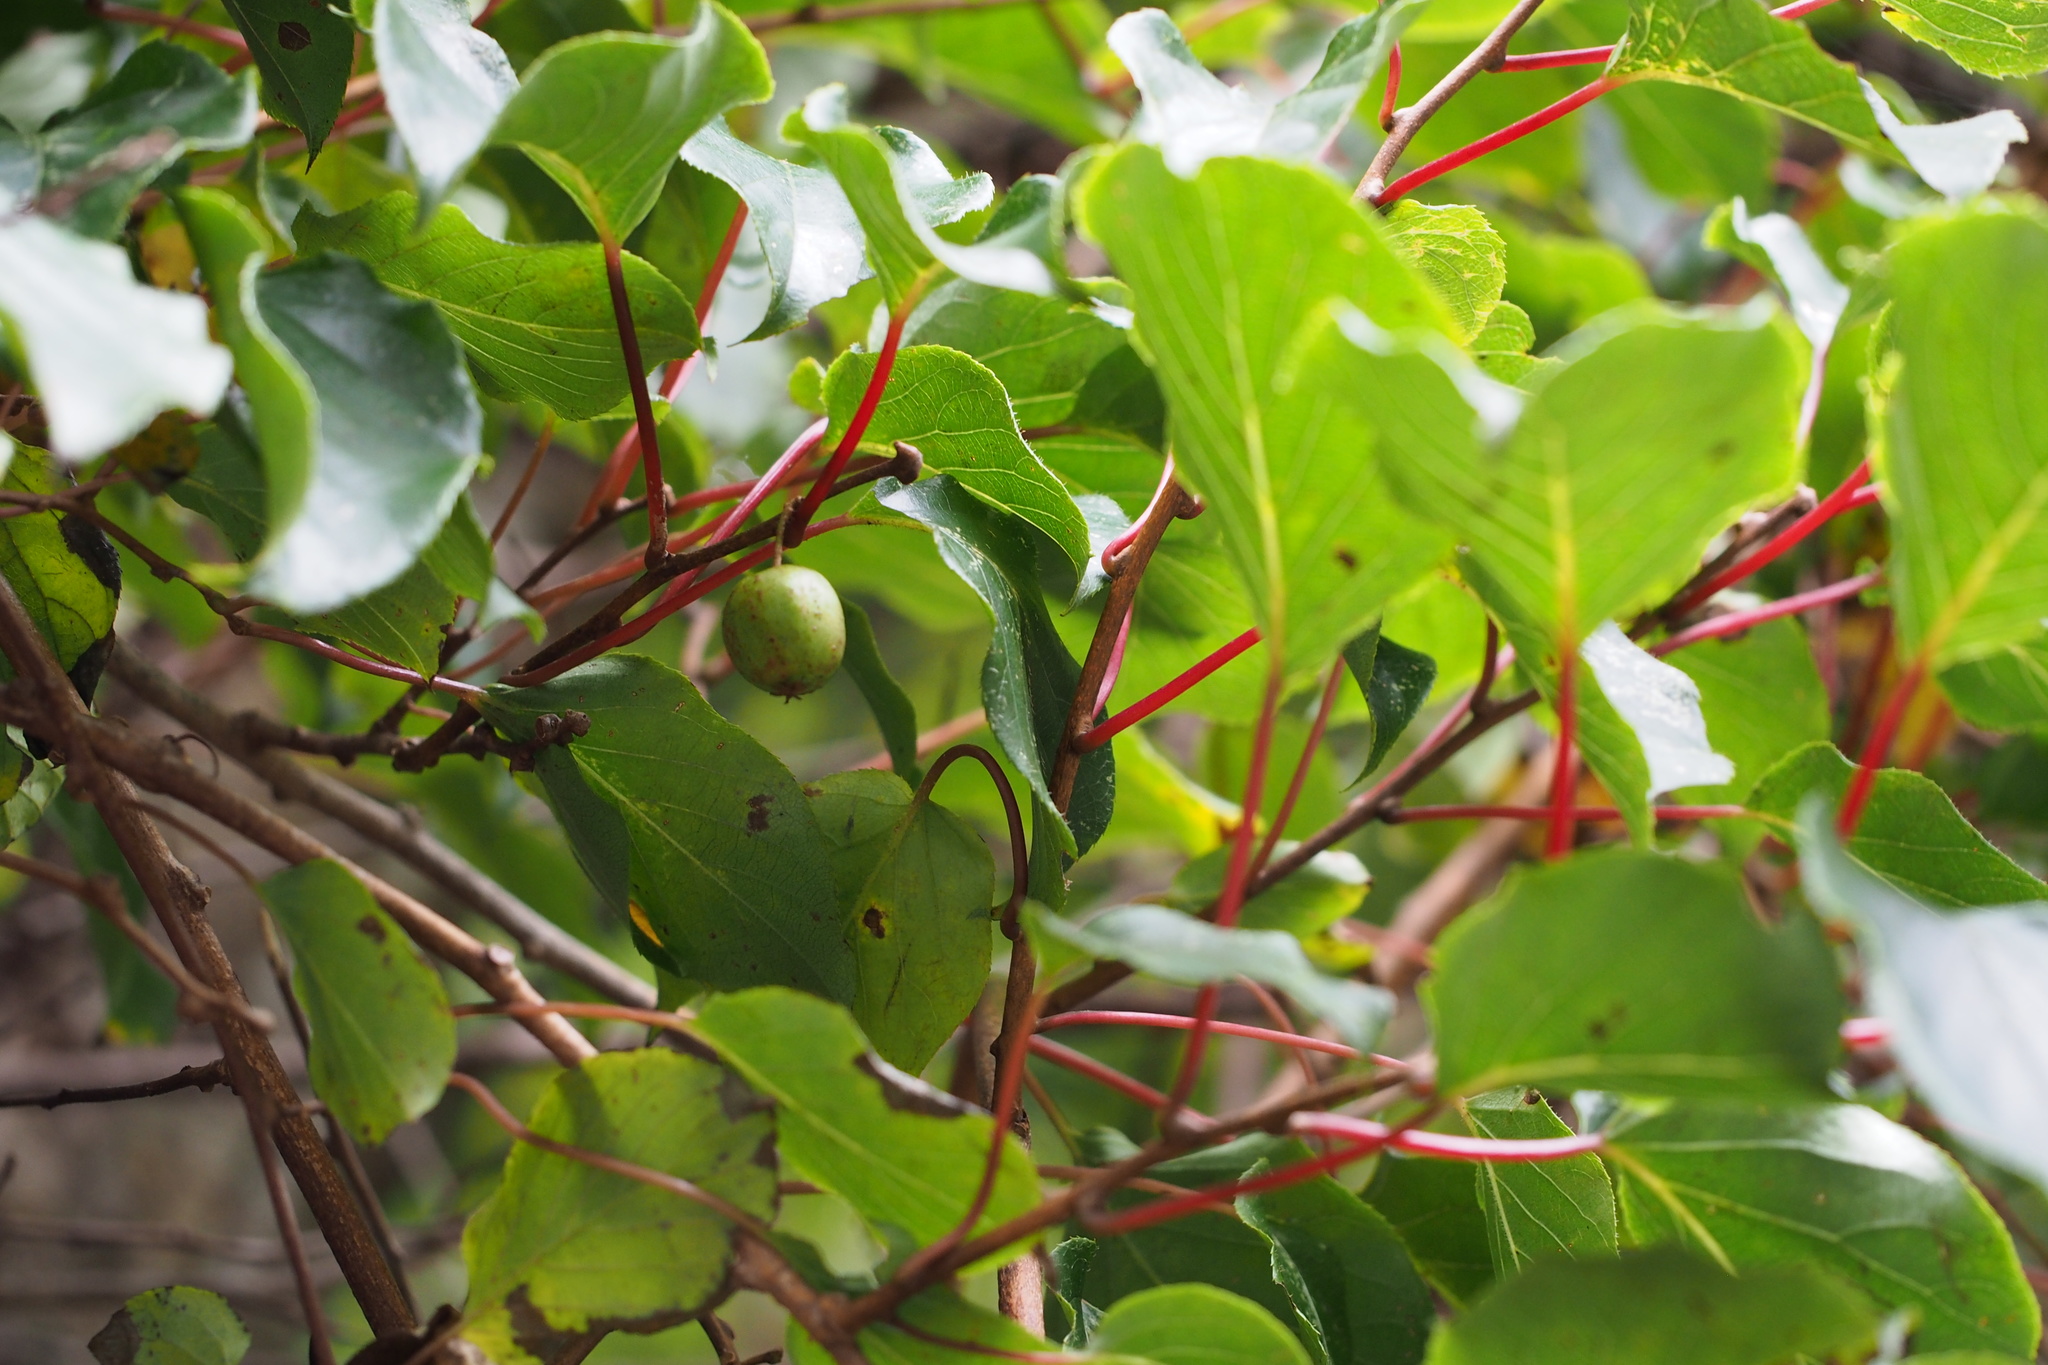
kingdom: Plantae
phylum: Tracheophyta
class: Magnoliopsida
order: Ericales
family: Actinidiaceae
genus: Actinidia
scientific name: Actinidia arguta
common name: Tara vine
